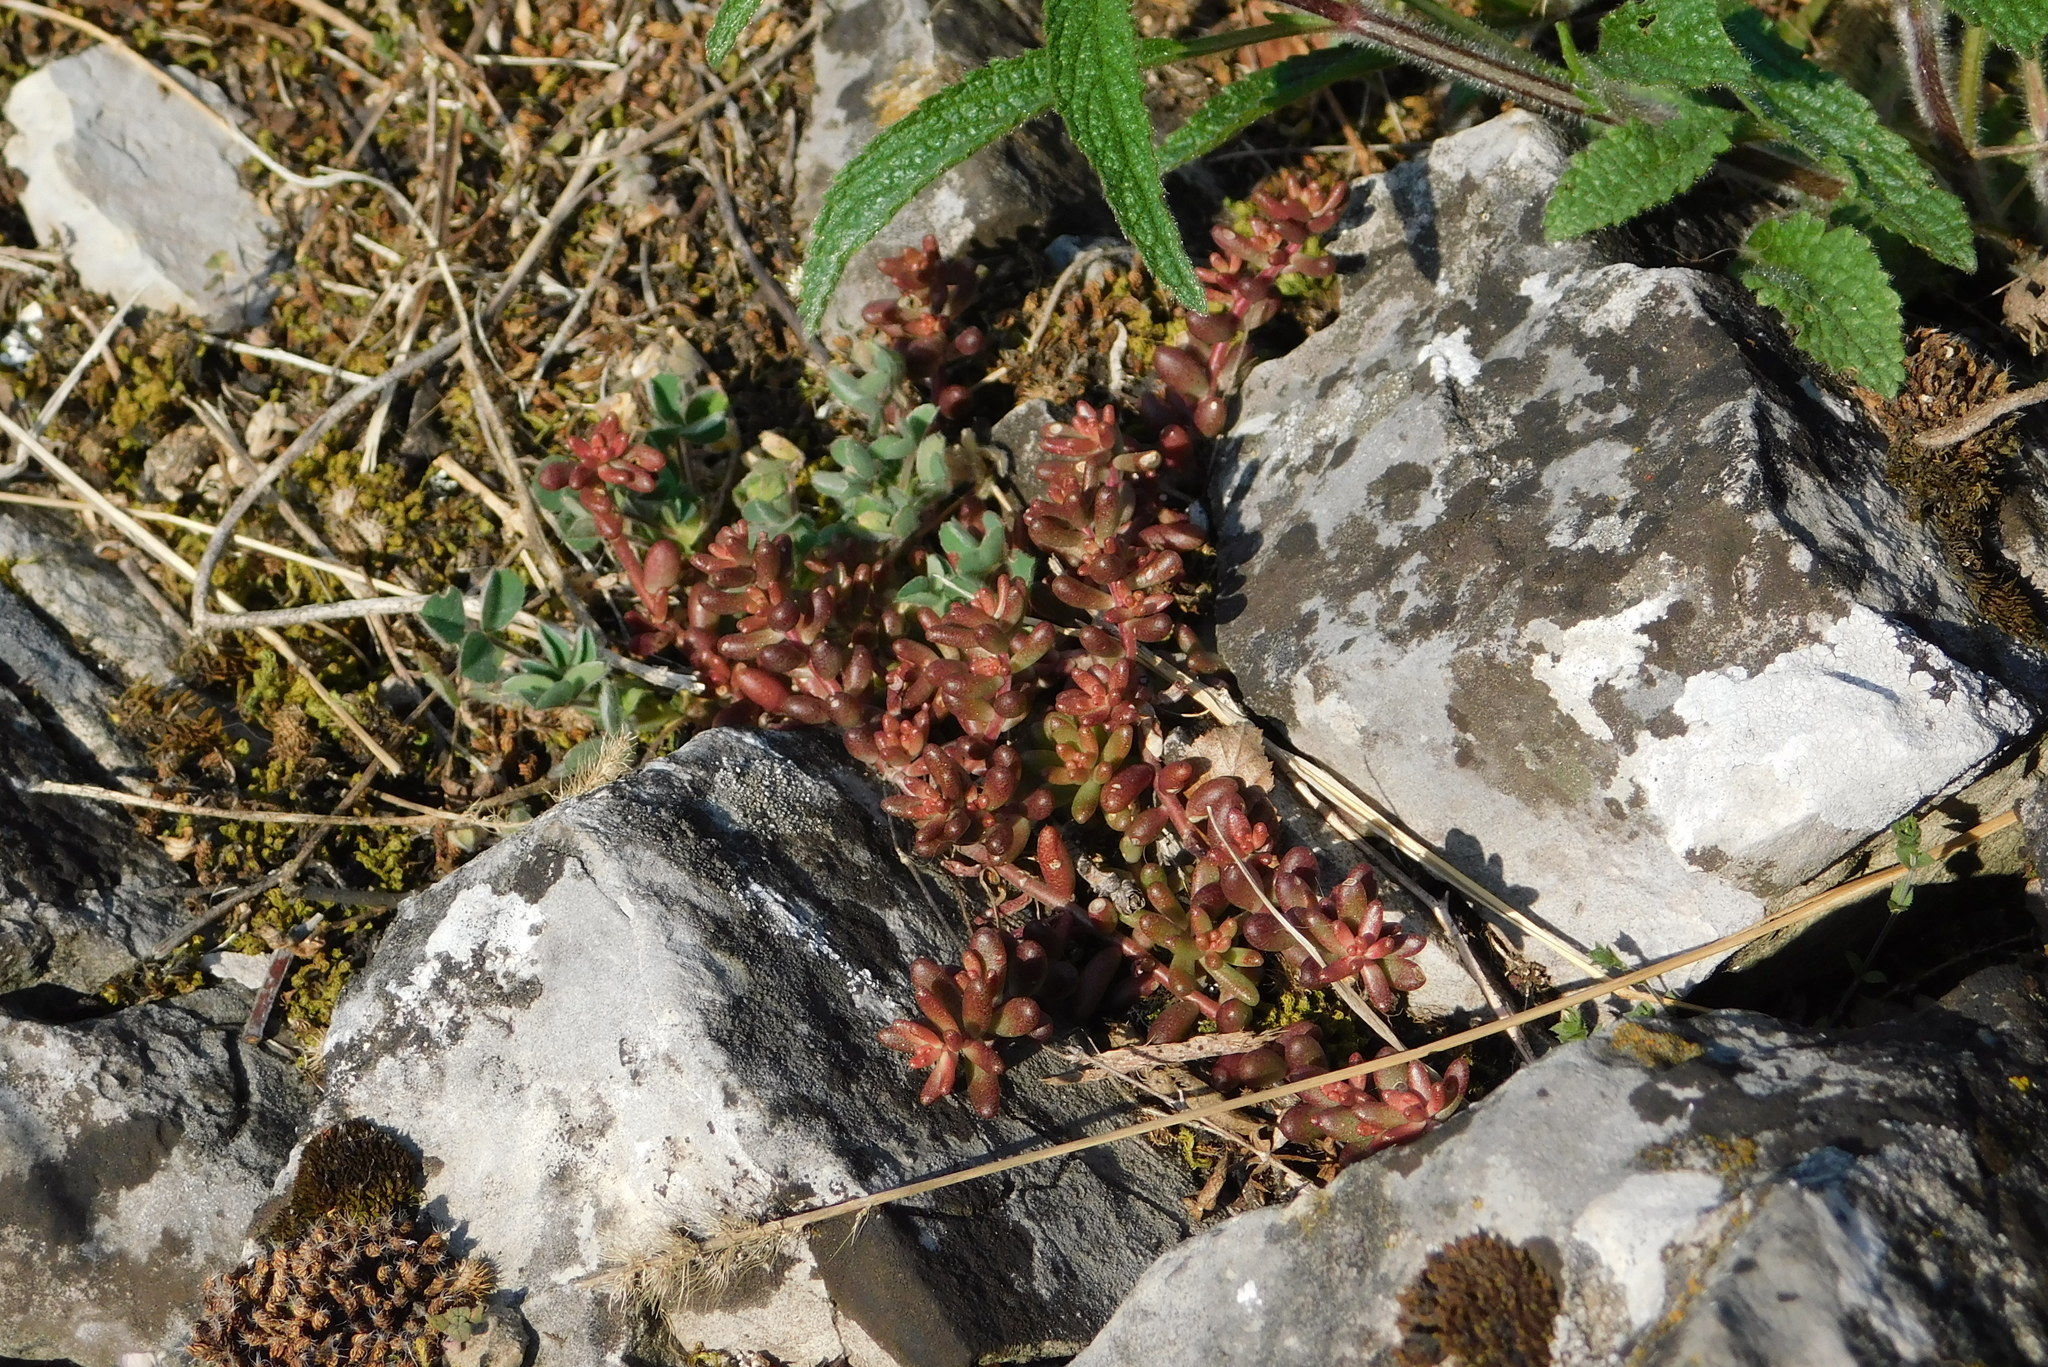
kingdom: Plantae
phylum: Tracheophyta
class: Magnoliopsida
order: Saxifragales
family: Crassulaceae
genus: Sedum
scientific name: Sedum album
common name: White stonecrop
